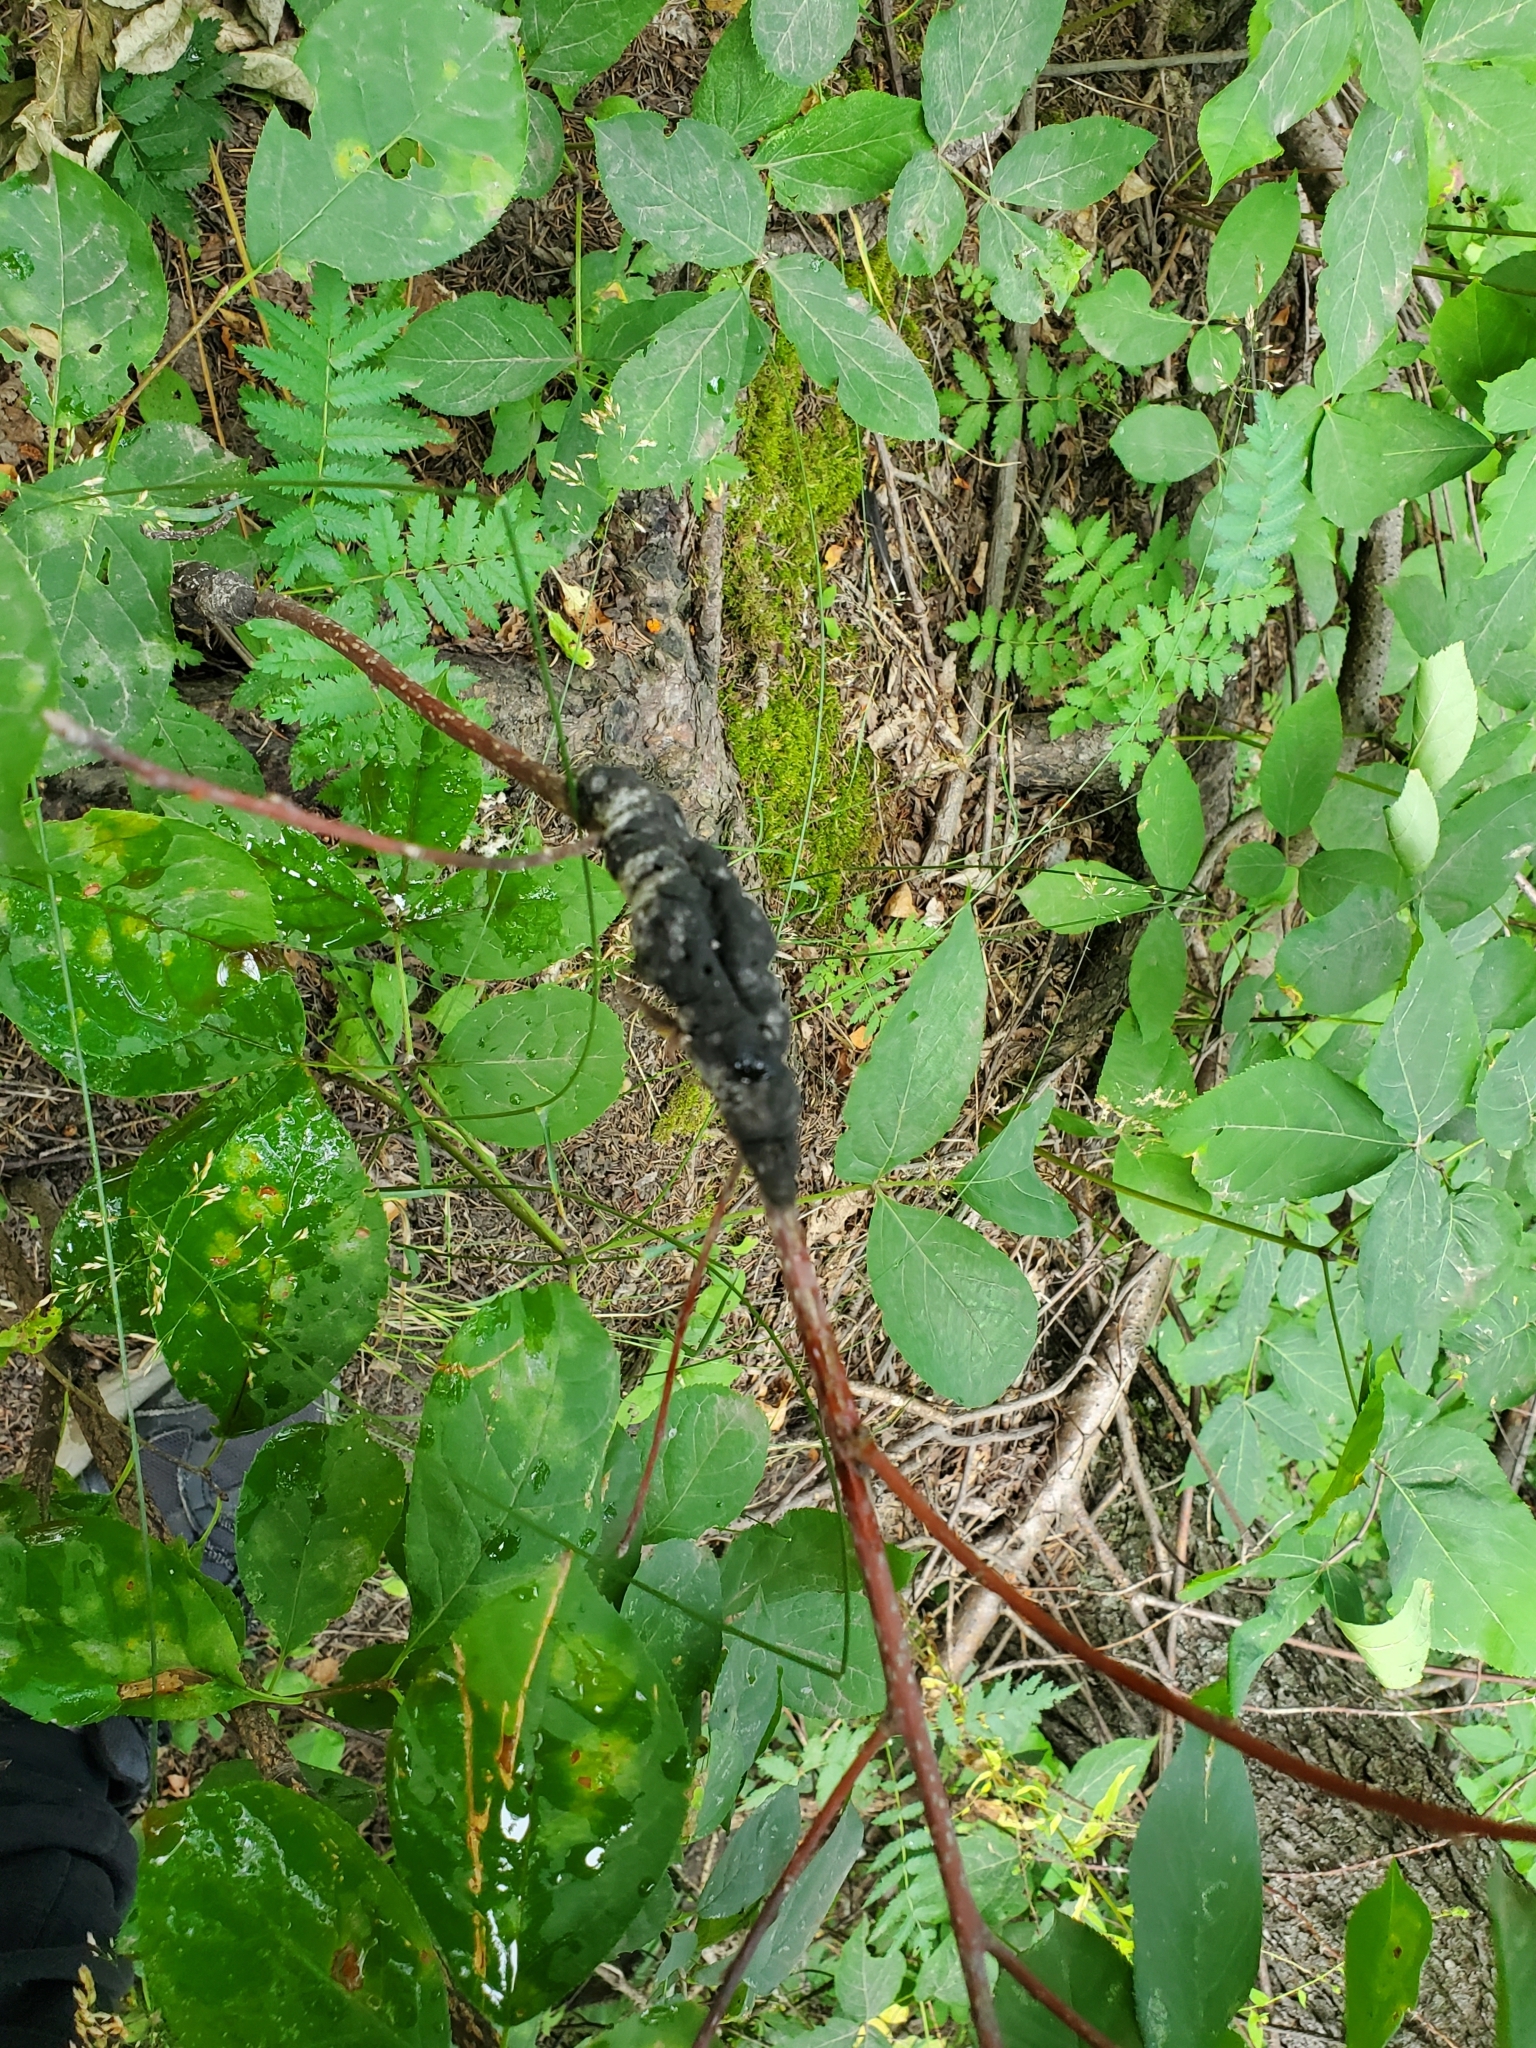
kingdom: Fungi
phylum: Ascomycota
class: Dothideomycetes
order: Venturiales
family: Venturiaceae
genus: Apiosporina
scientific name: Apiosporina morbosa
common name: Black knot
